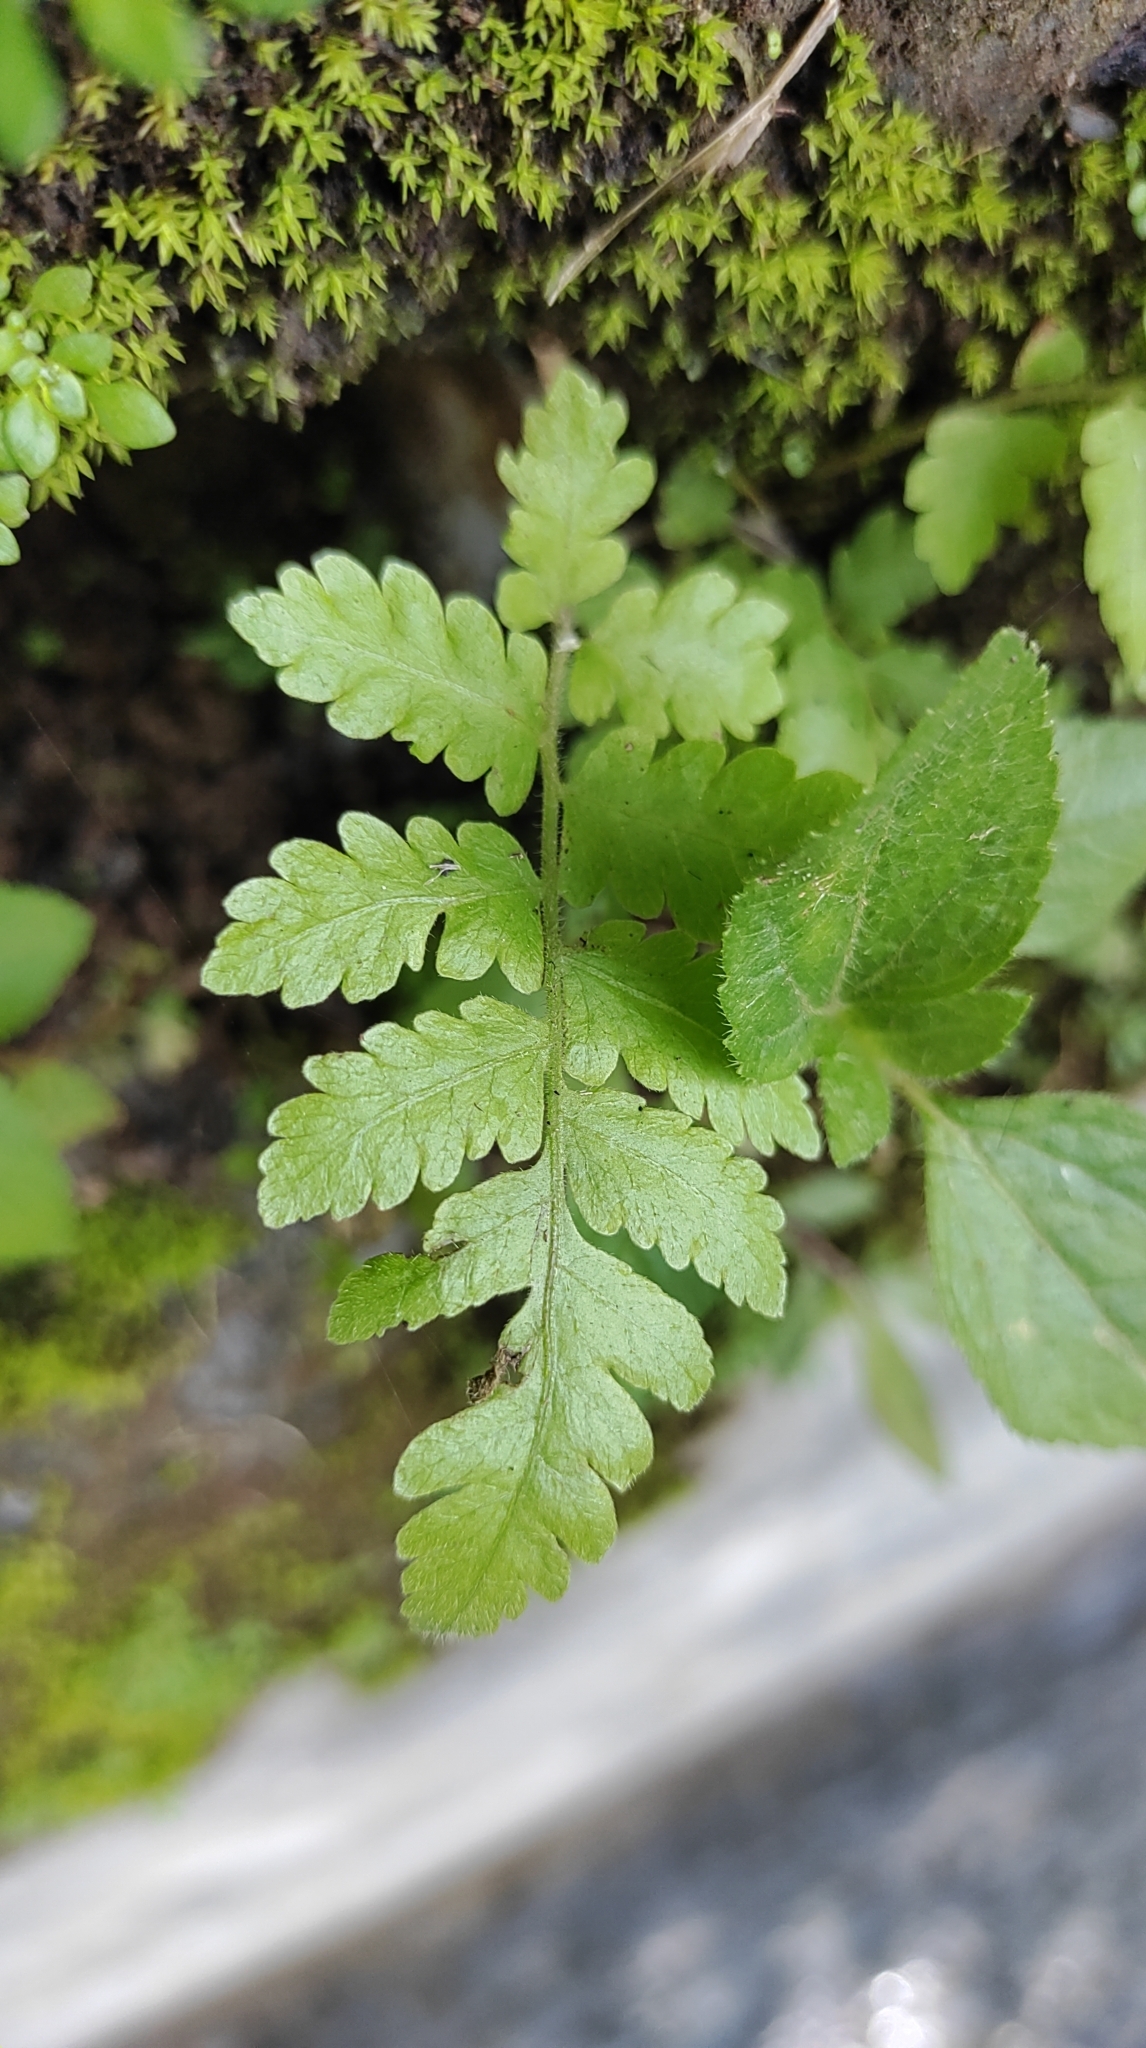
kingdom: Plantae
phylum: Tracheophyta
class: Polypodiopsida
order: Polypodiales
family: Thelypteridaceae
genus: Christella
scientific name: Christella parasitica
